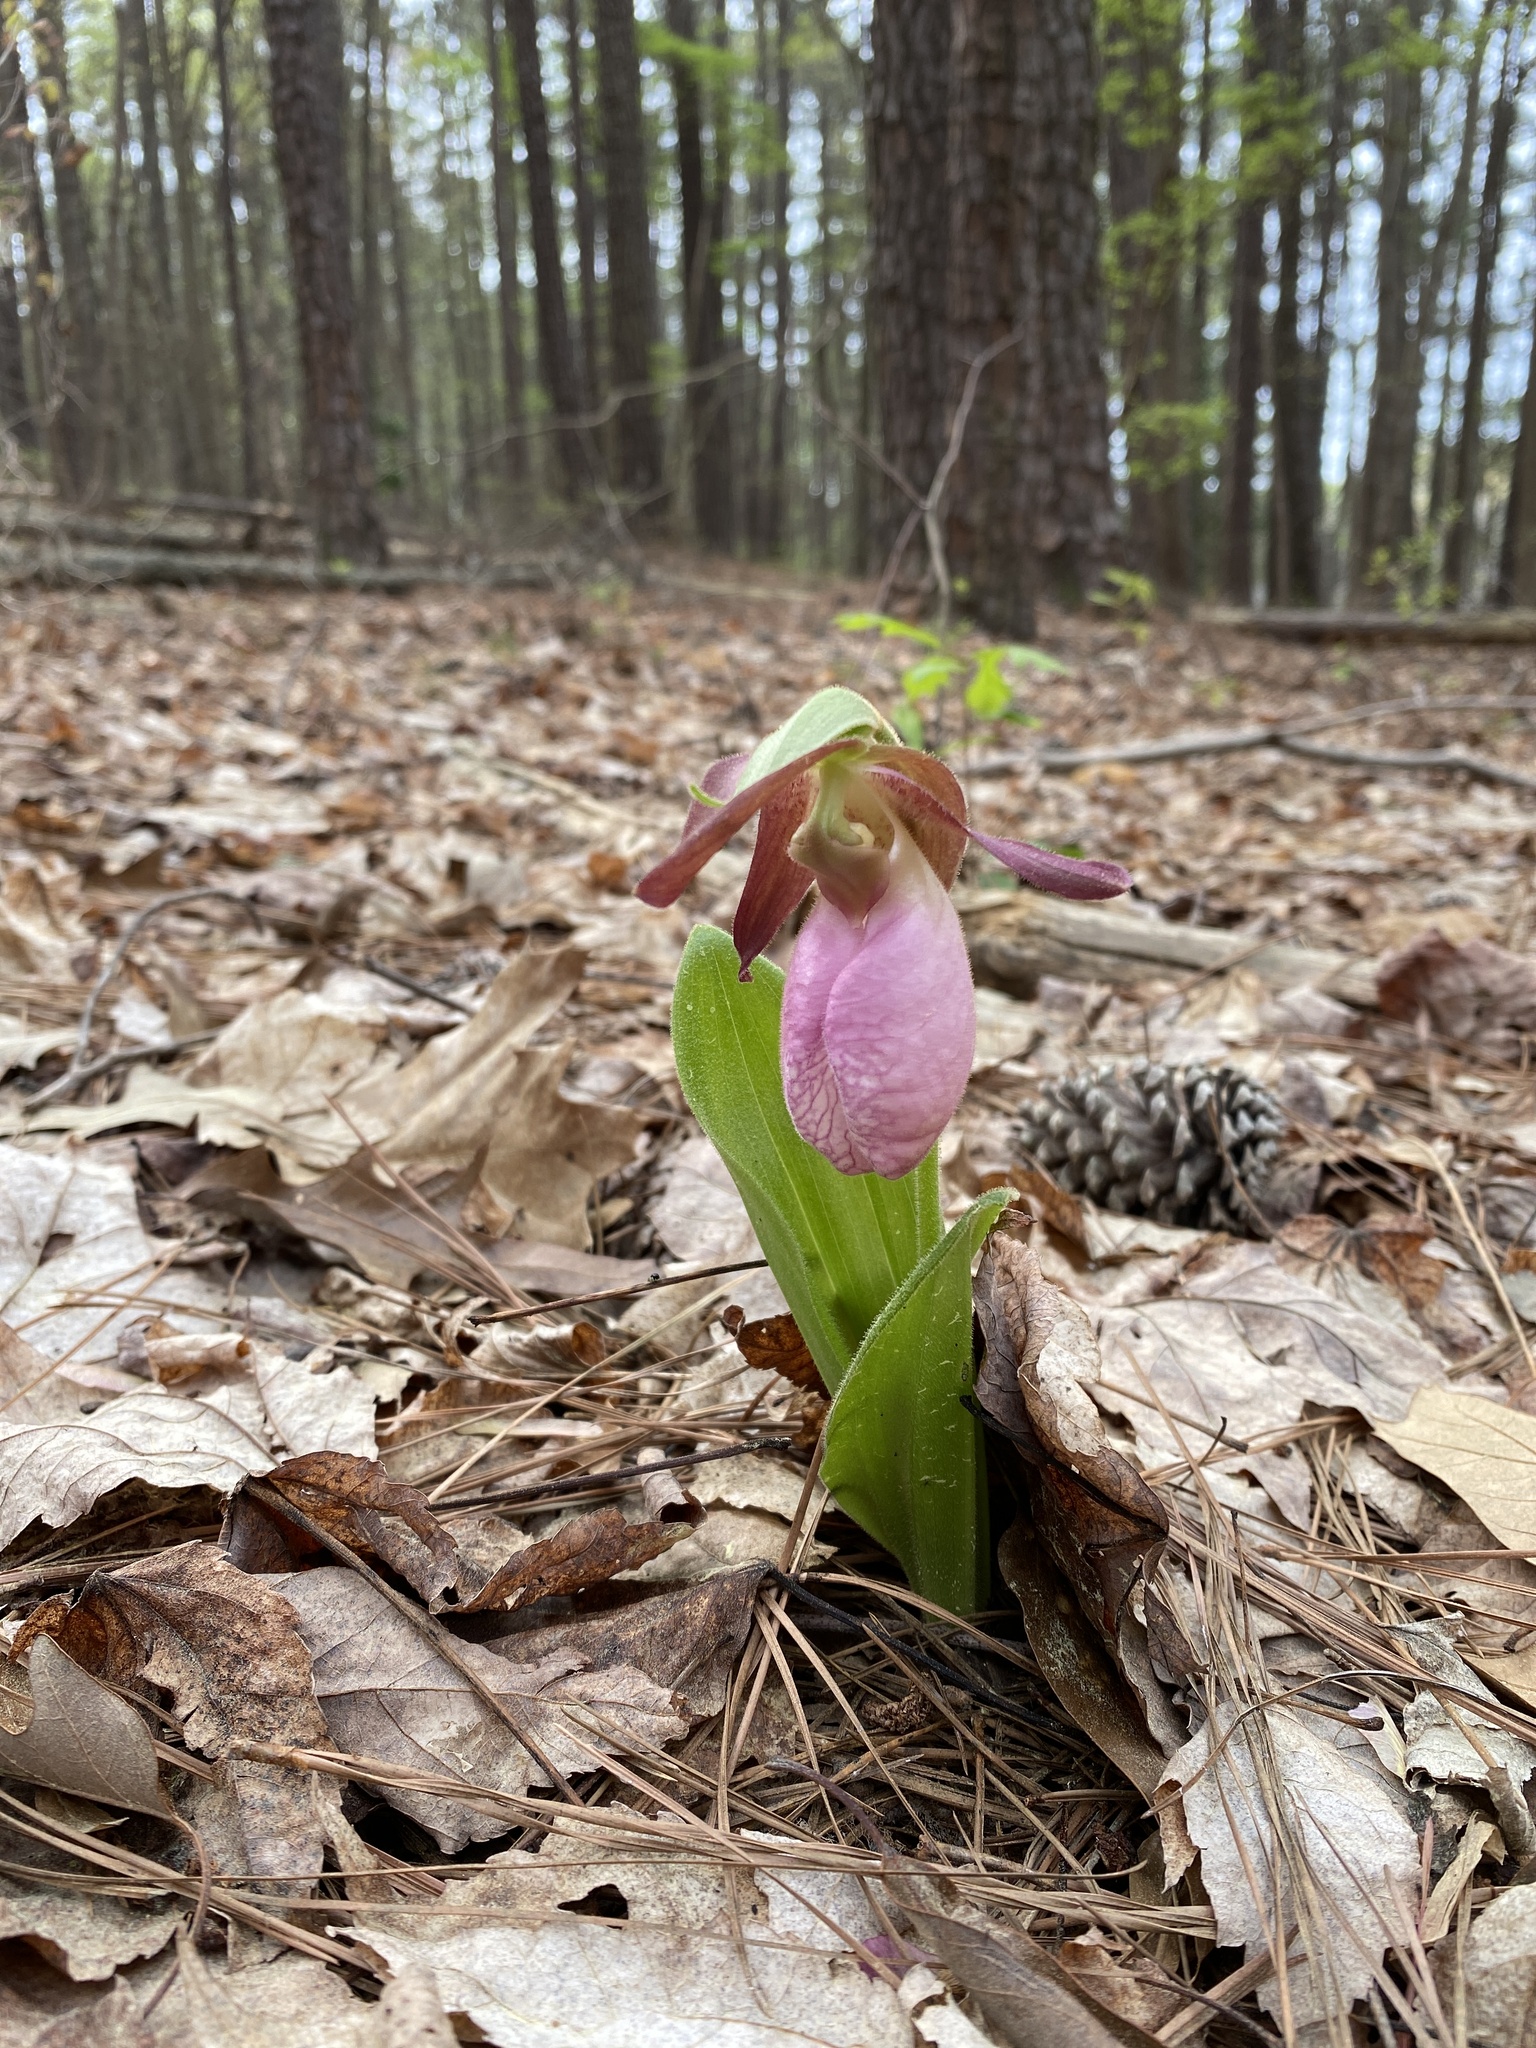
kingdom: Plantae
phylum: Tracheophyta
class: Liliopsida
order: Asparagales
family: Orchidaceae
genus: Cypripedium
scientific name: Cypripedium acaule
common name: Pink lady's-slipper
